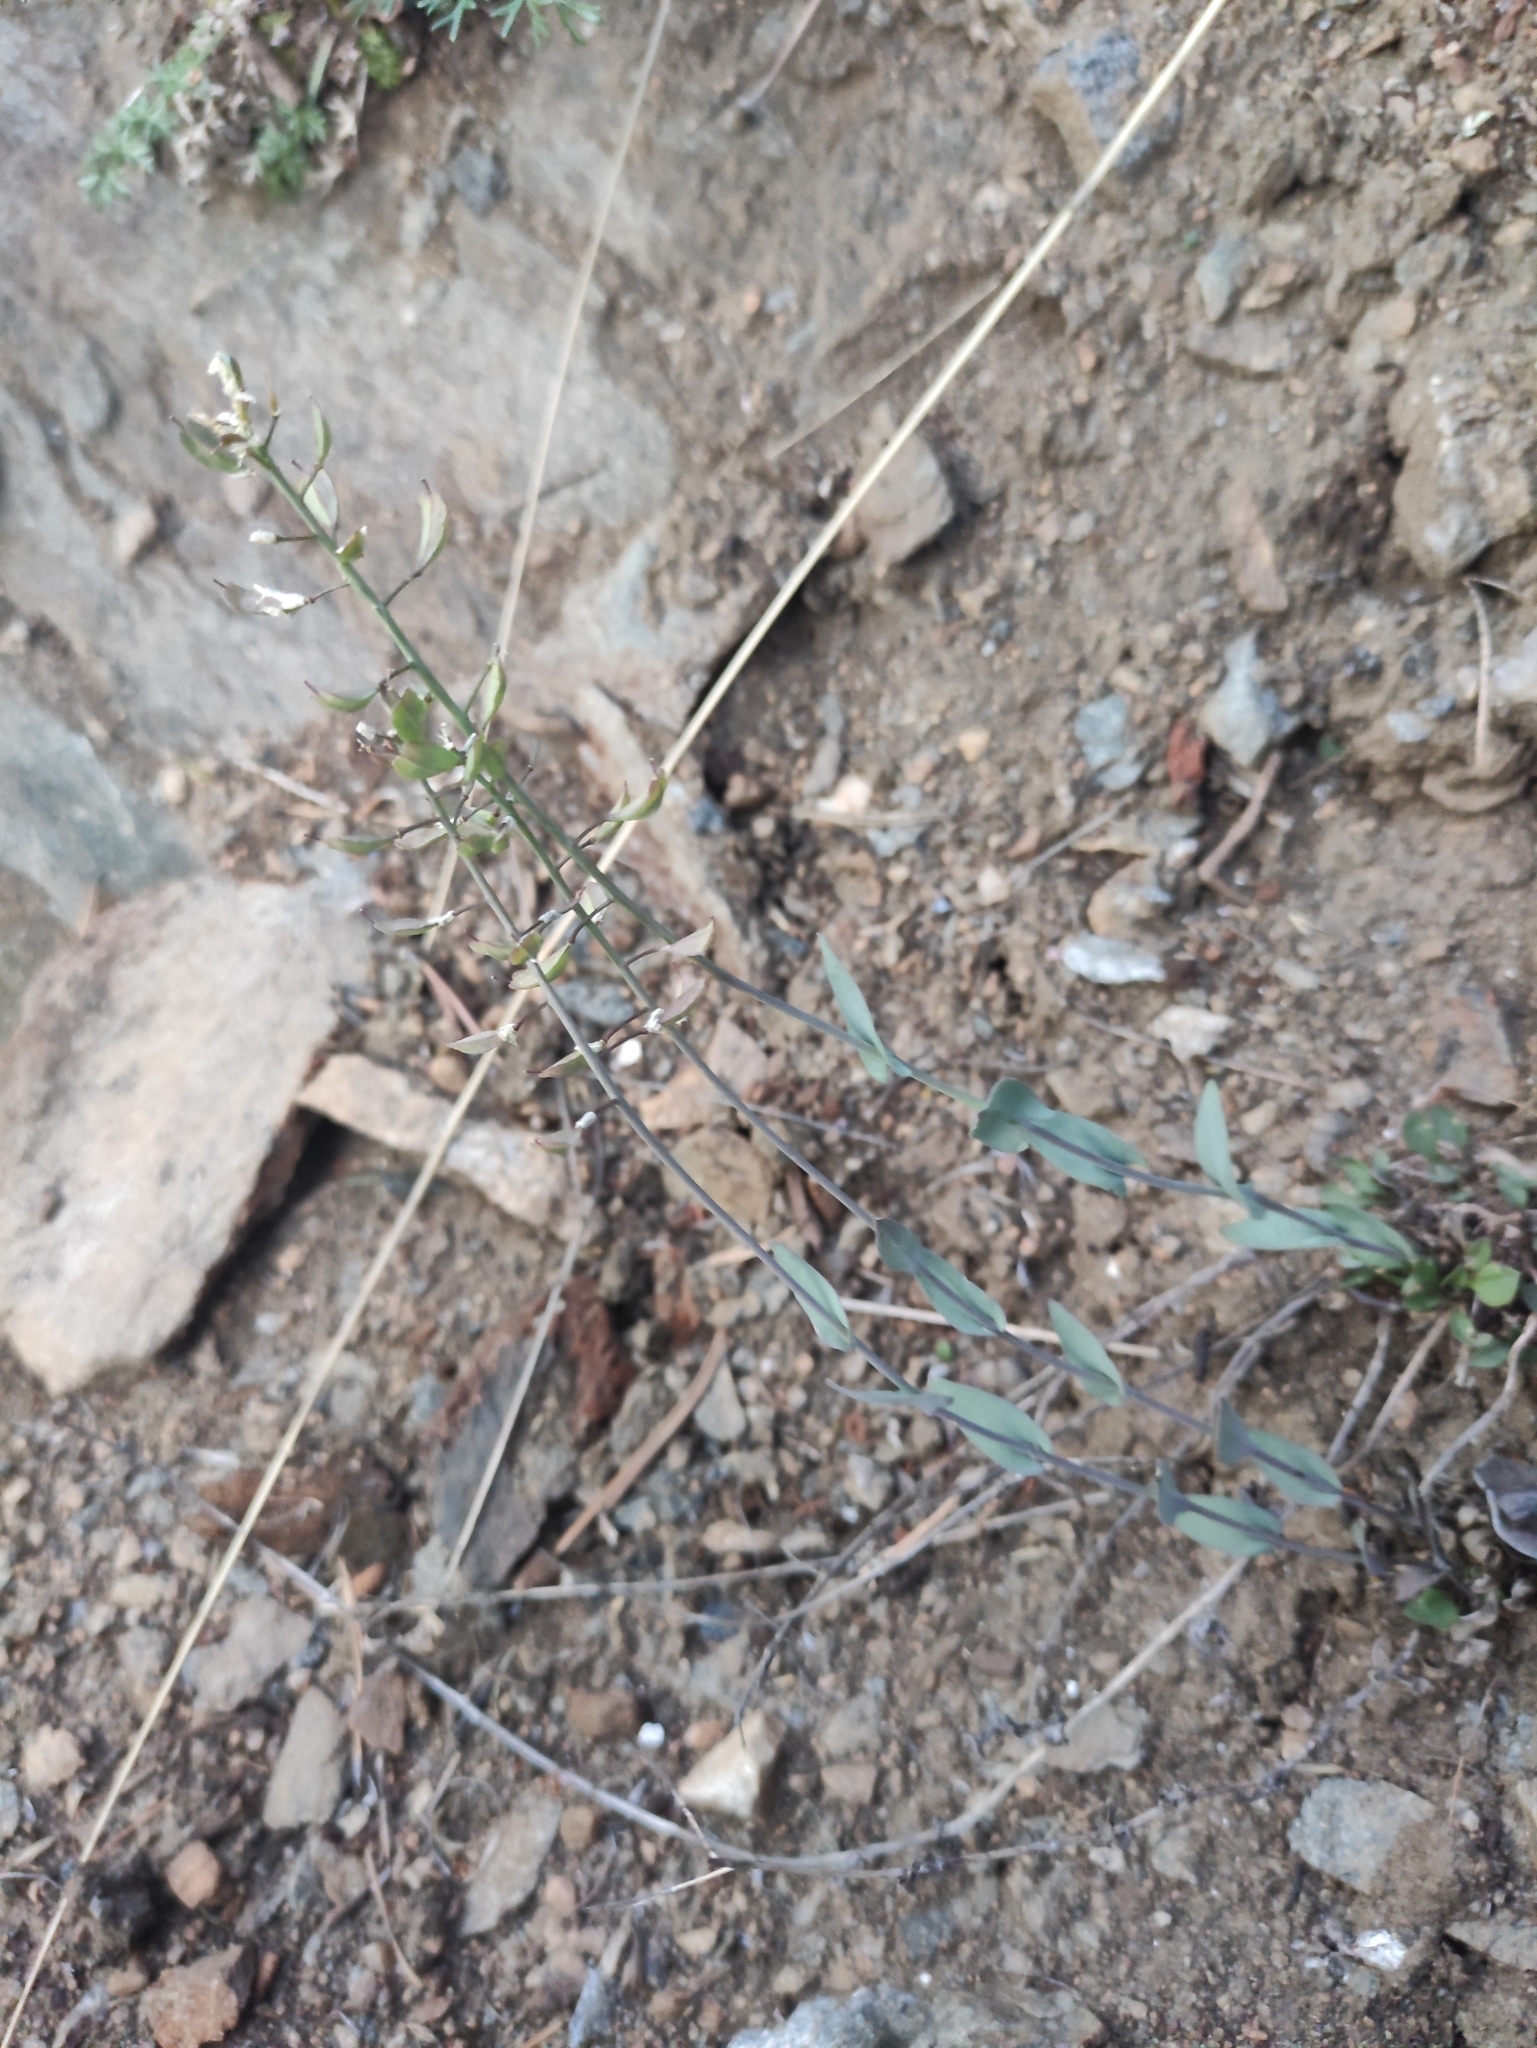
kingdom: Plantae
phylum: Tracheophyta
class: Magnoliopsida
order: Brassicales
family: Brassicaceae
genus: Noccaea
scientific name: Noccaea thlaspidioides
